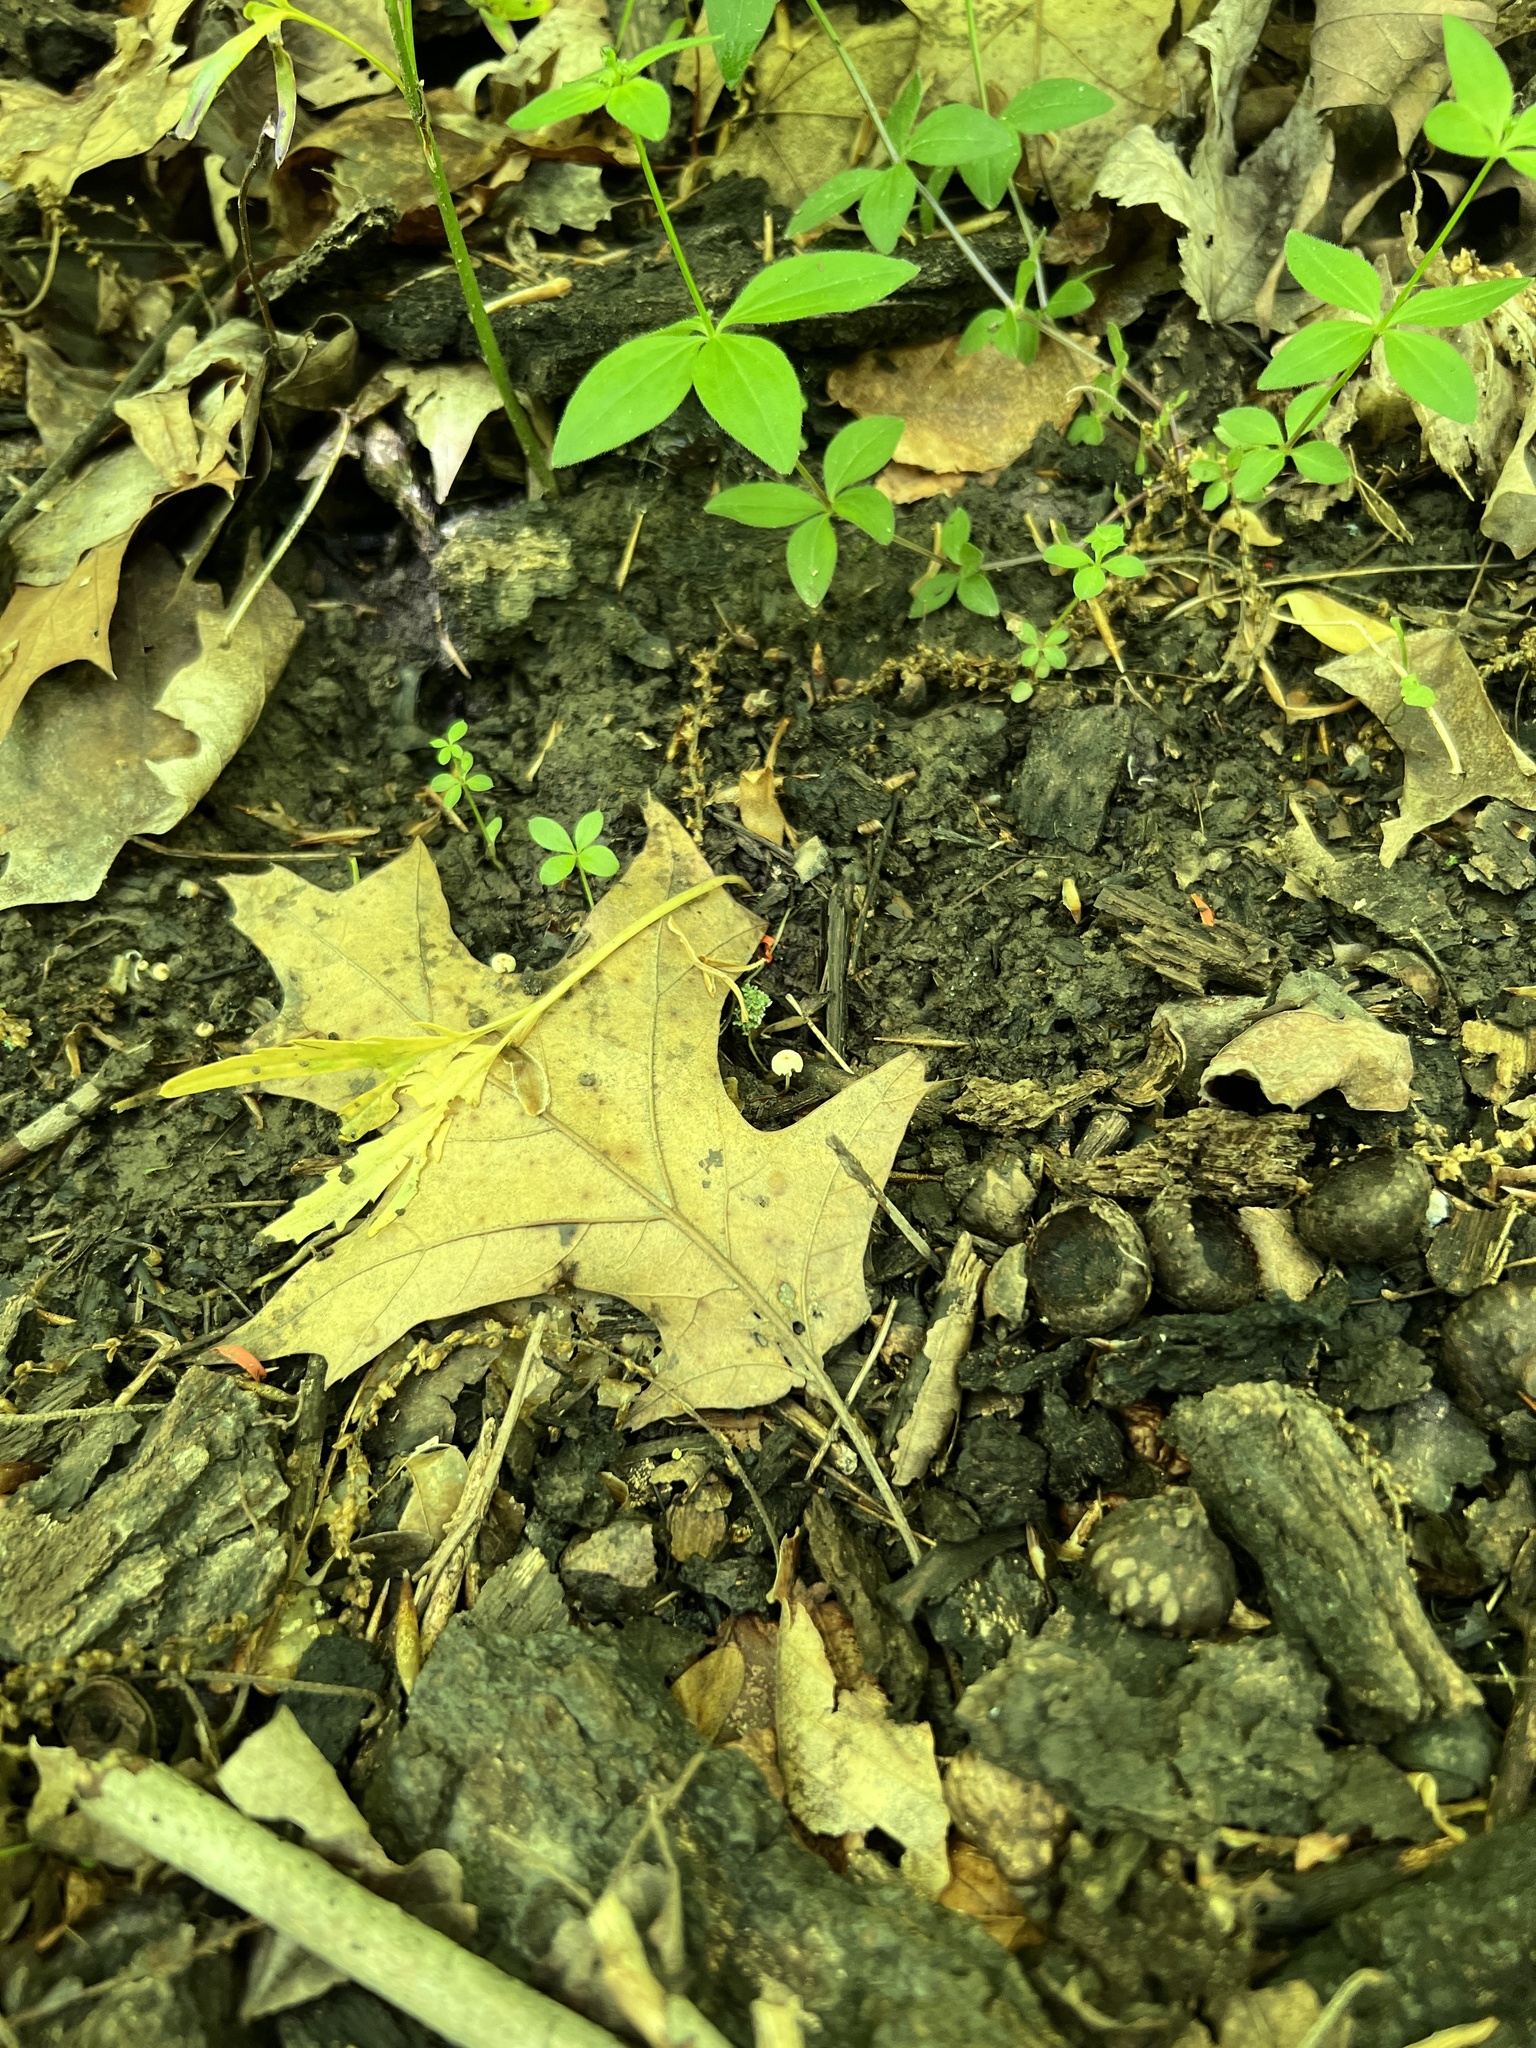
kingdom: Fungi
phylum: Basidiomycota
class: Agaricomycetes
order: Agaricales
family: Marasmiaceae
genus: Marasmius
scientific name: Marasmius capillaris
